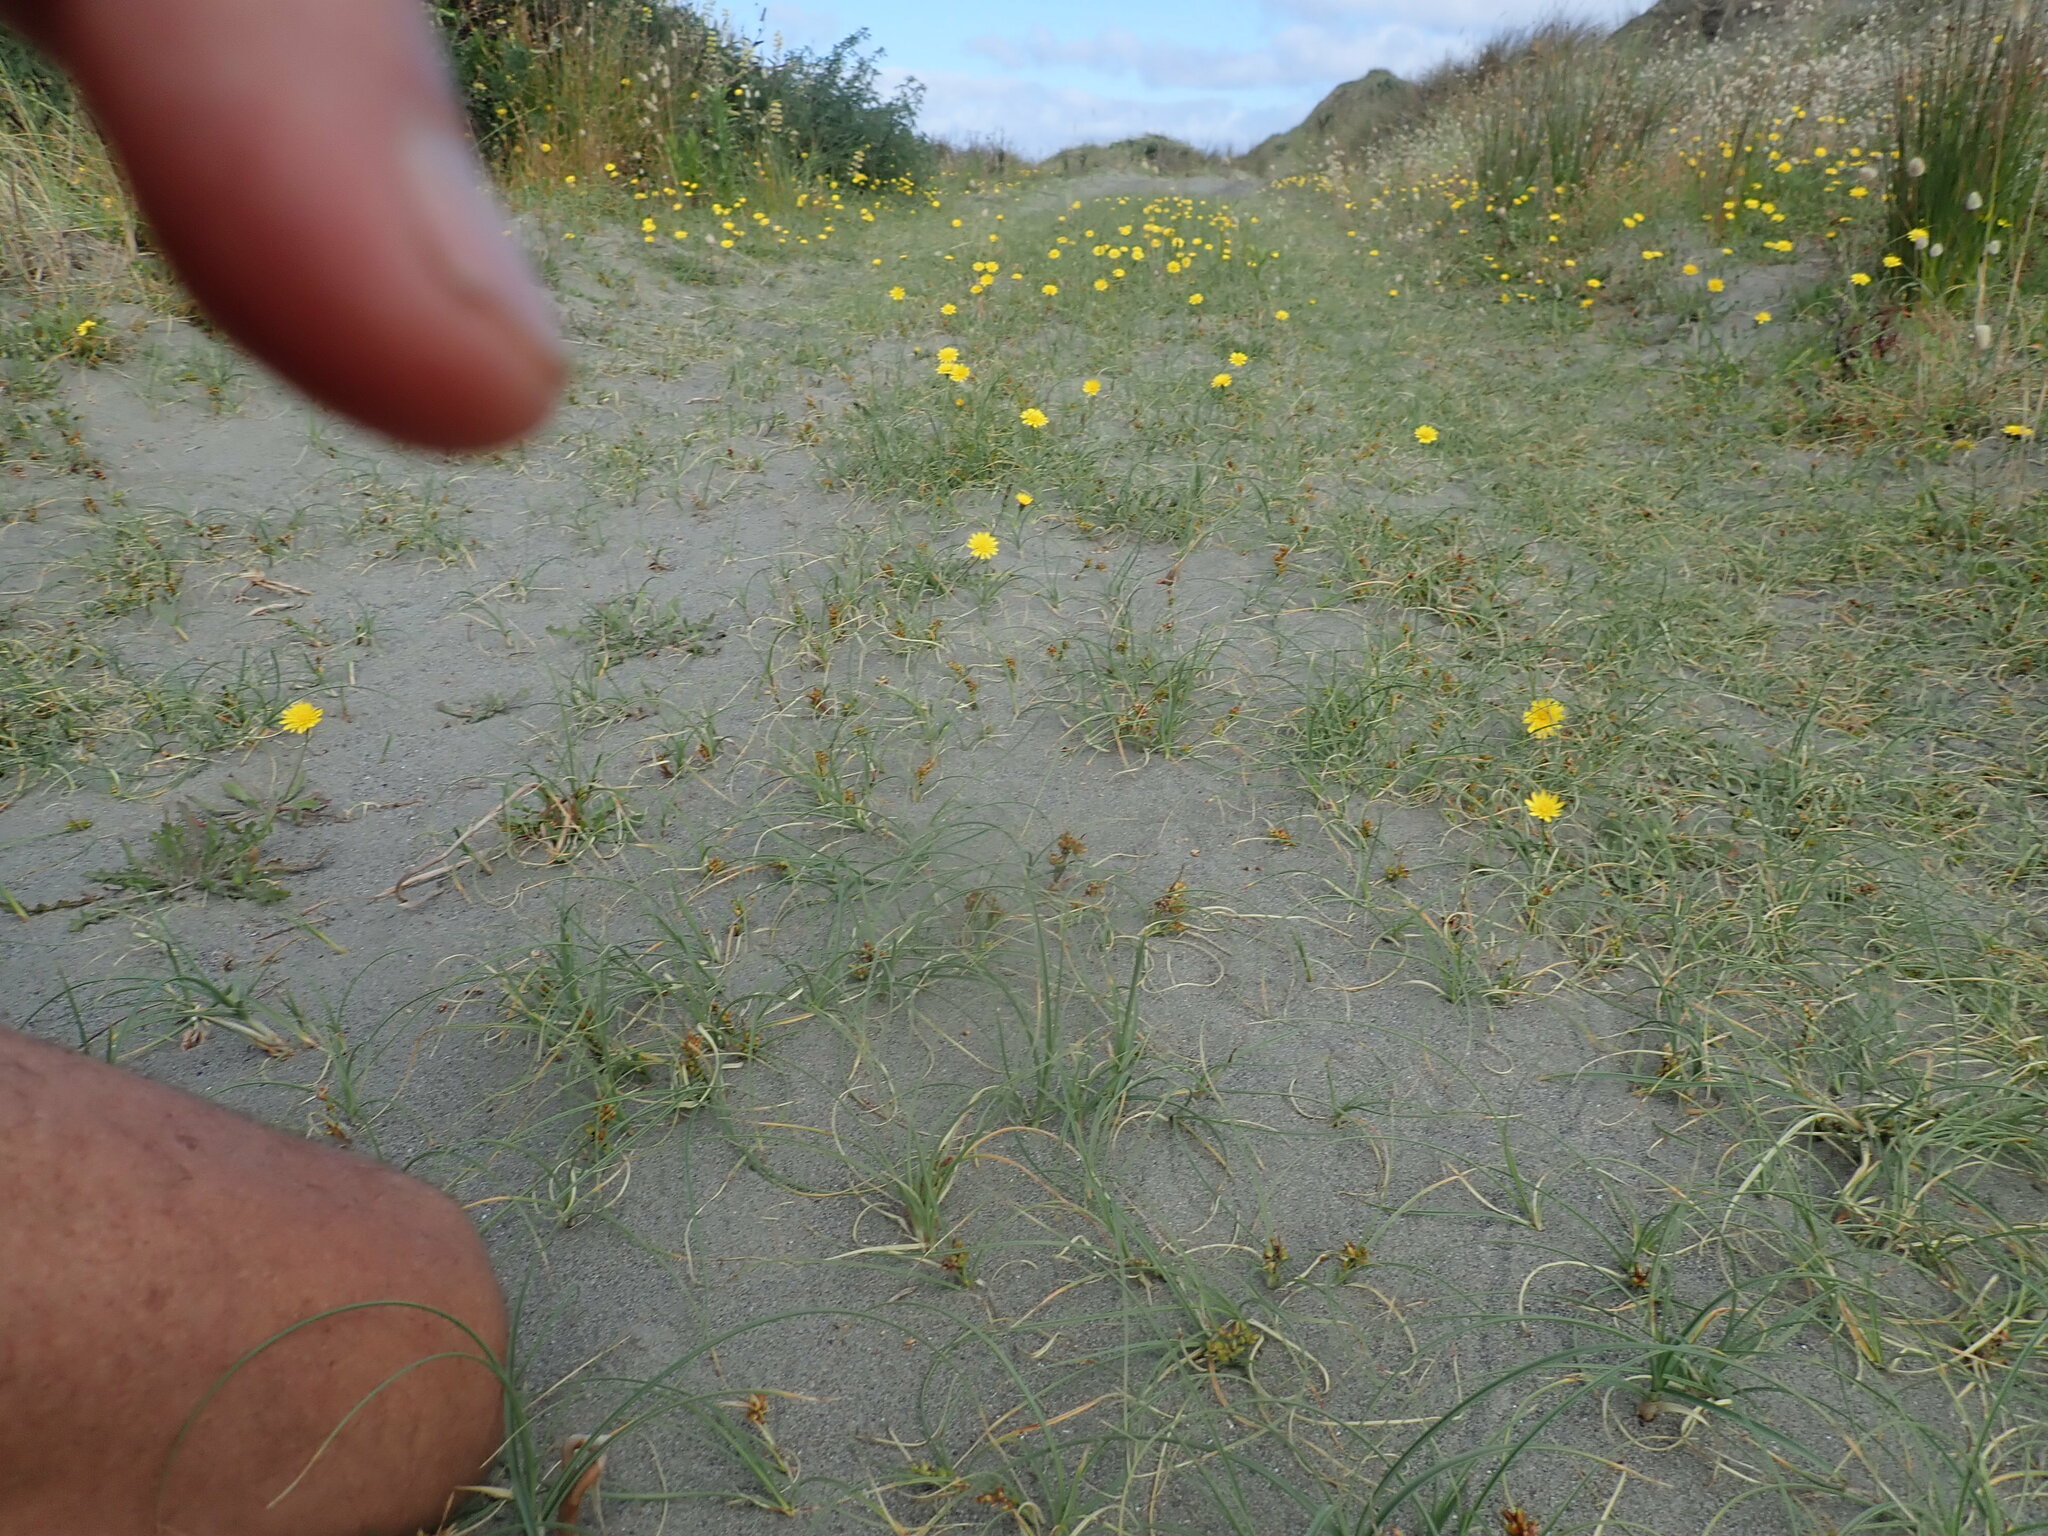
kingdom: Plantae
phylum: Tracheophyta
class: Liliopsida
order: Poales
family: Cyperaceae
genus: Carex
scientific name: Carex pumila
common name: Dwarf sedge
